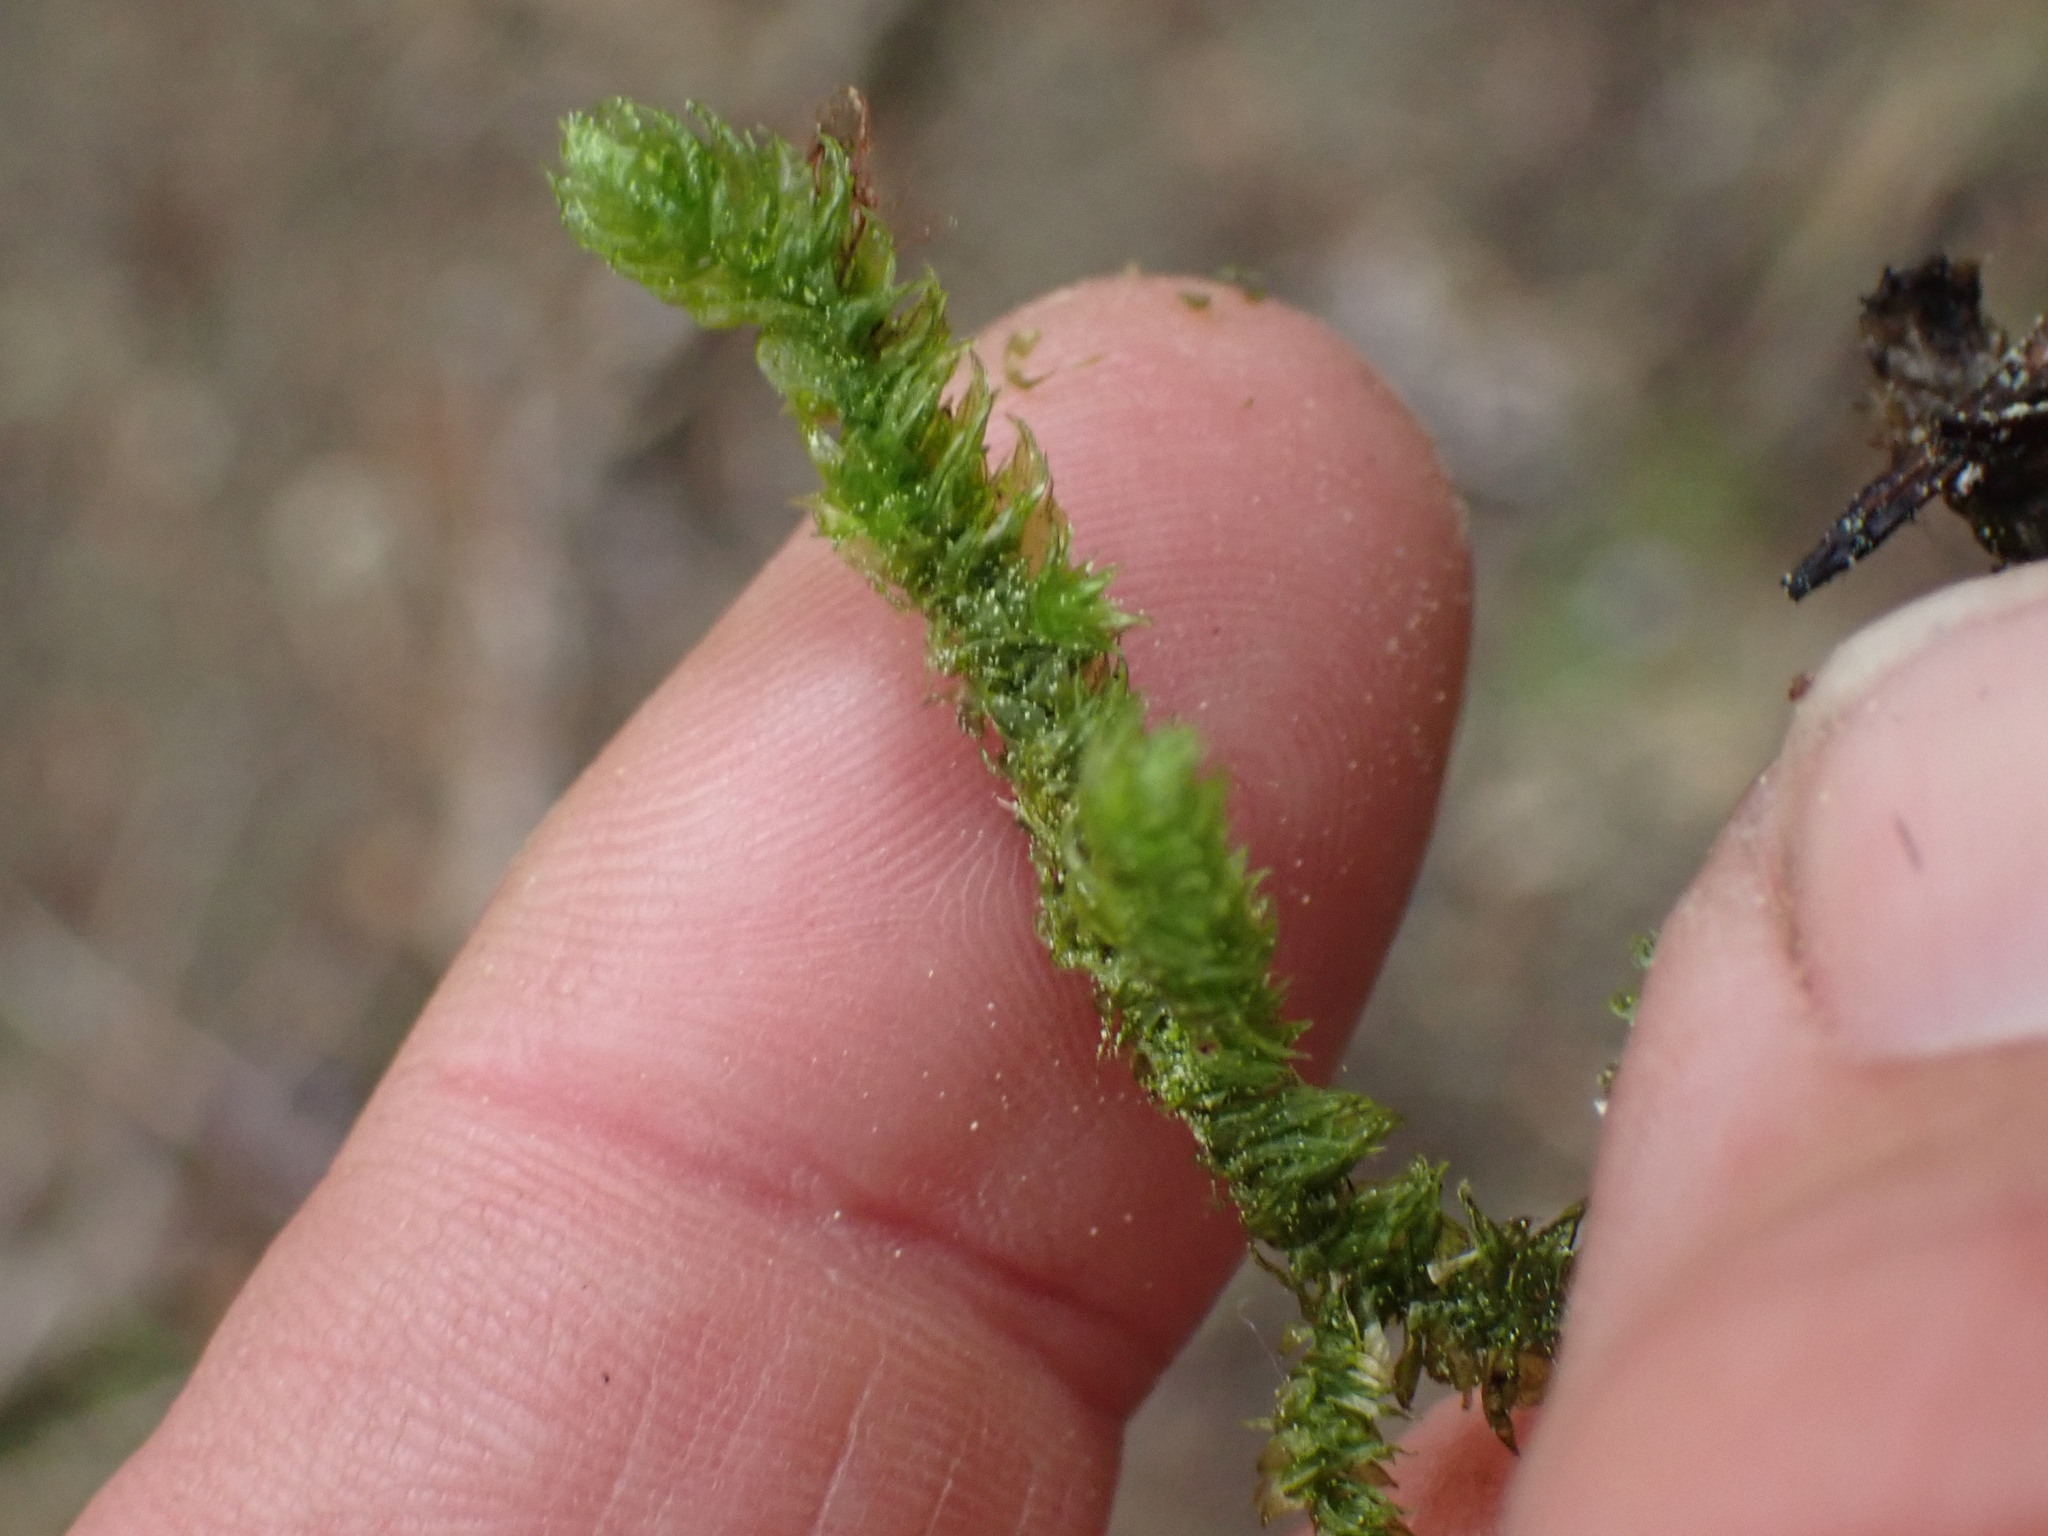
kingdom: Plantae
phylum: Bryophyta
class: Bryopsida
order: Hypnales
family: Hylocomiaceae
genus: Rhytidiopsis
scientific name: Rhytidiopsis robusta
